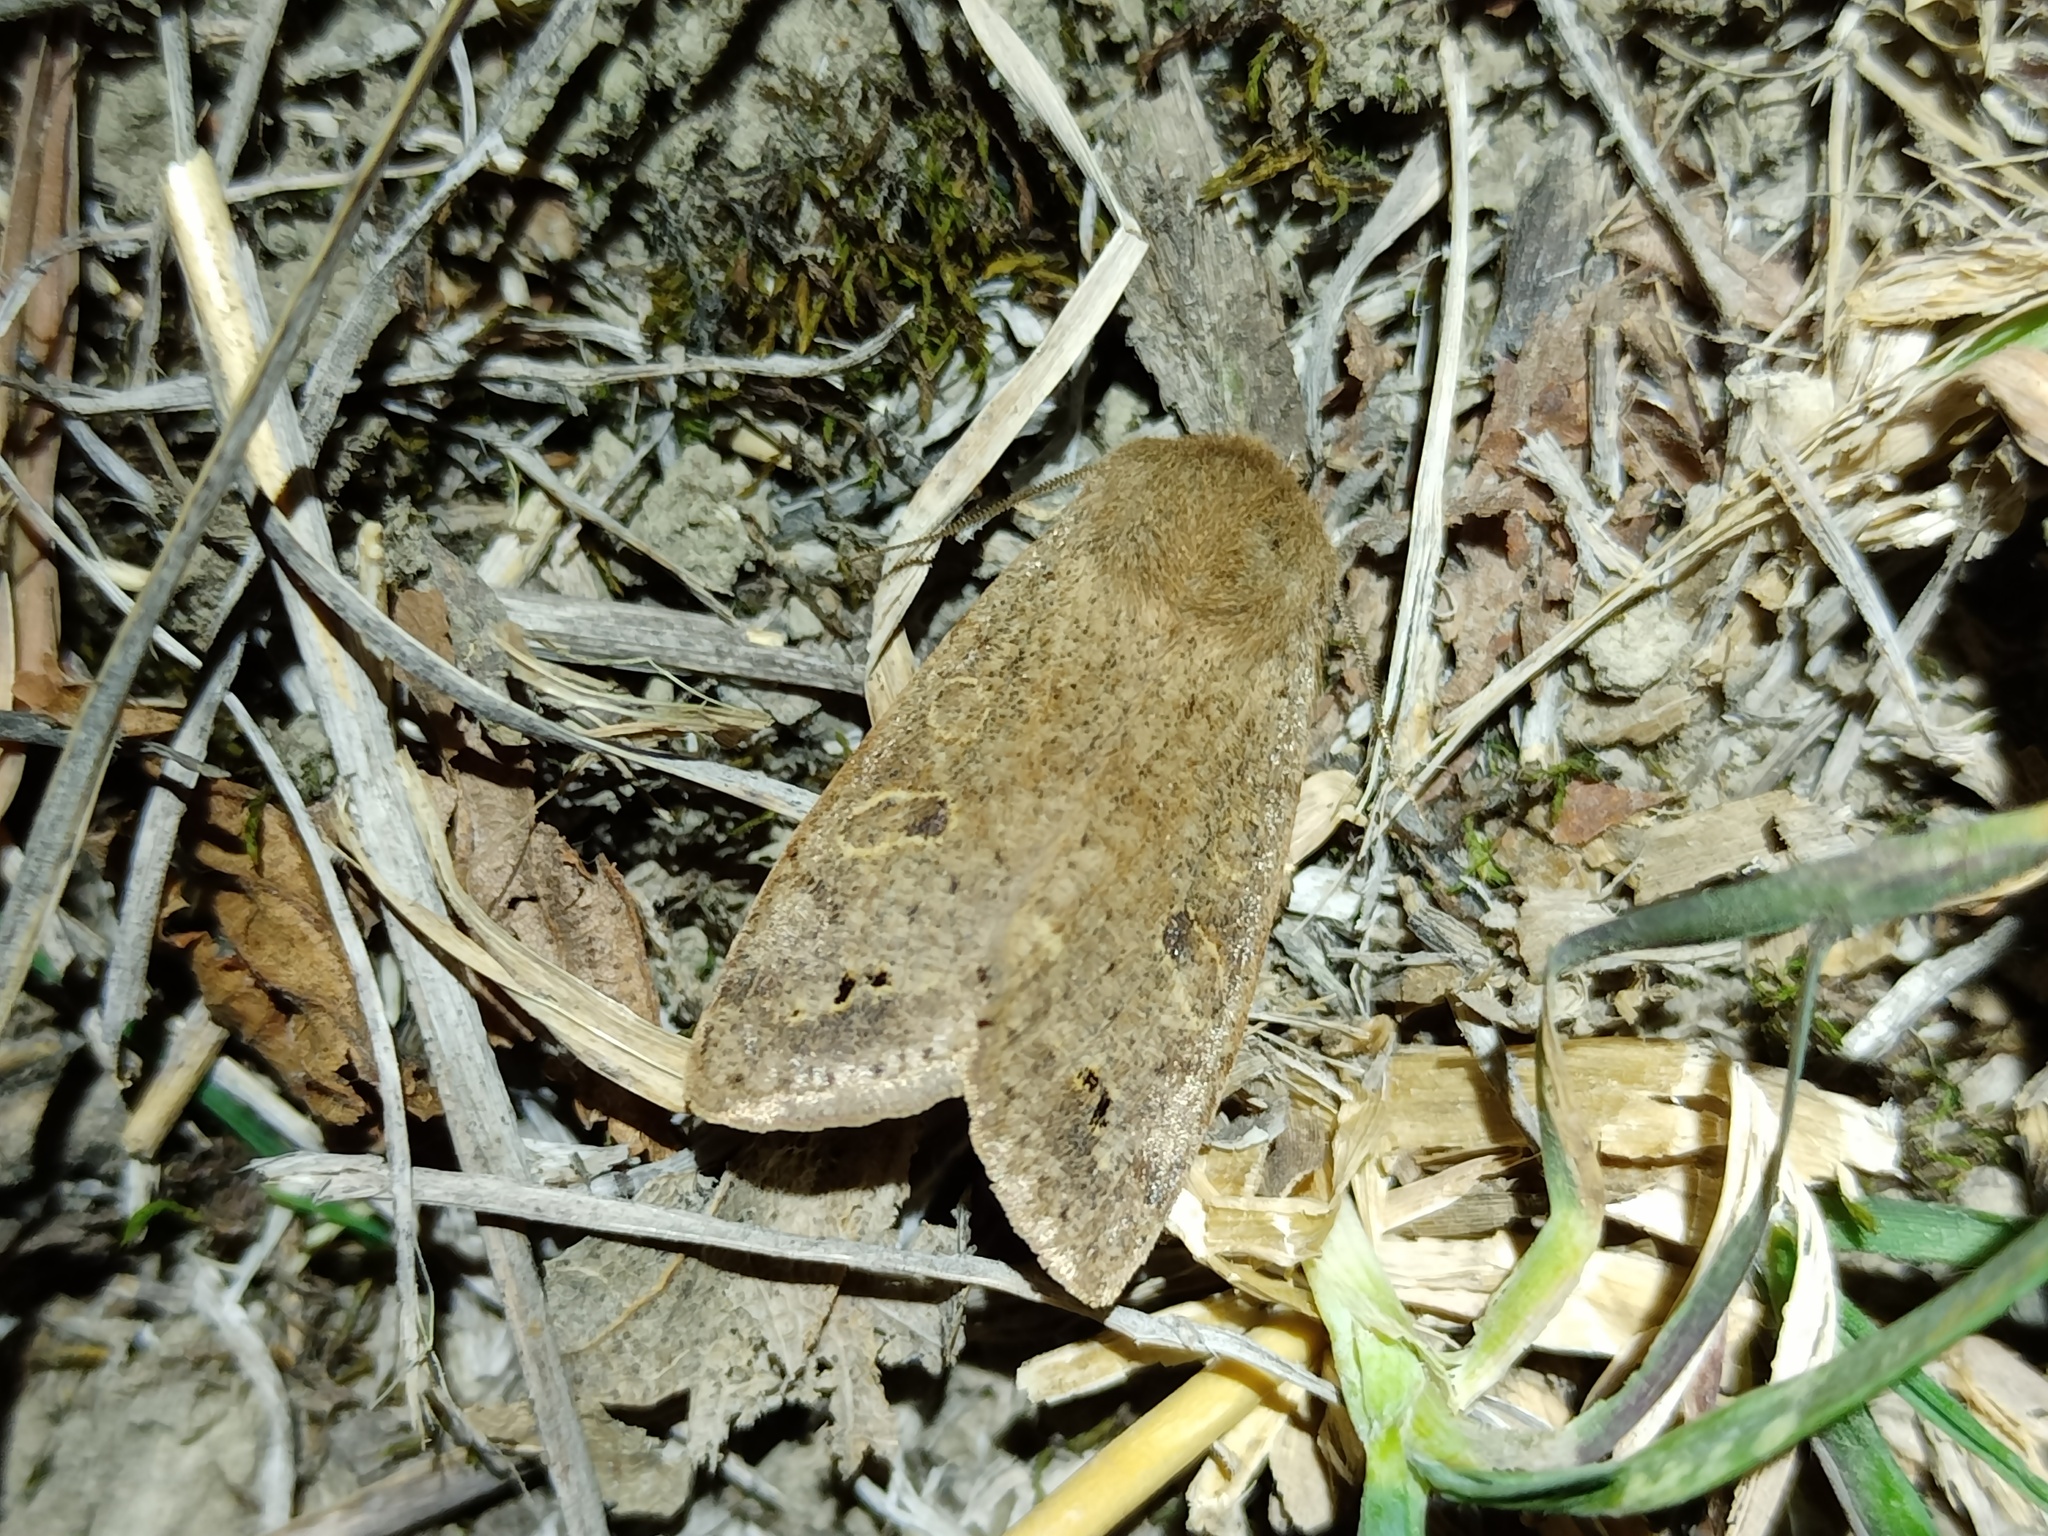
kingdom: Animalia
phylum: Arthropoda
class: Insecta
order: Lepidoptera
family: Noctuidae
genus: Anorthoa
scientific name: Anorthoa munda
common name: Twin-spotted quaker
